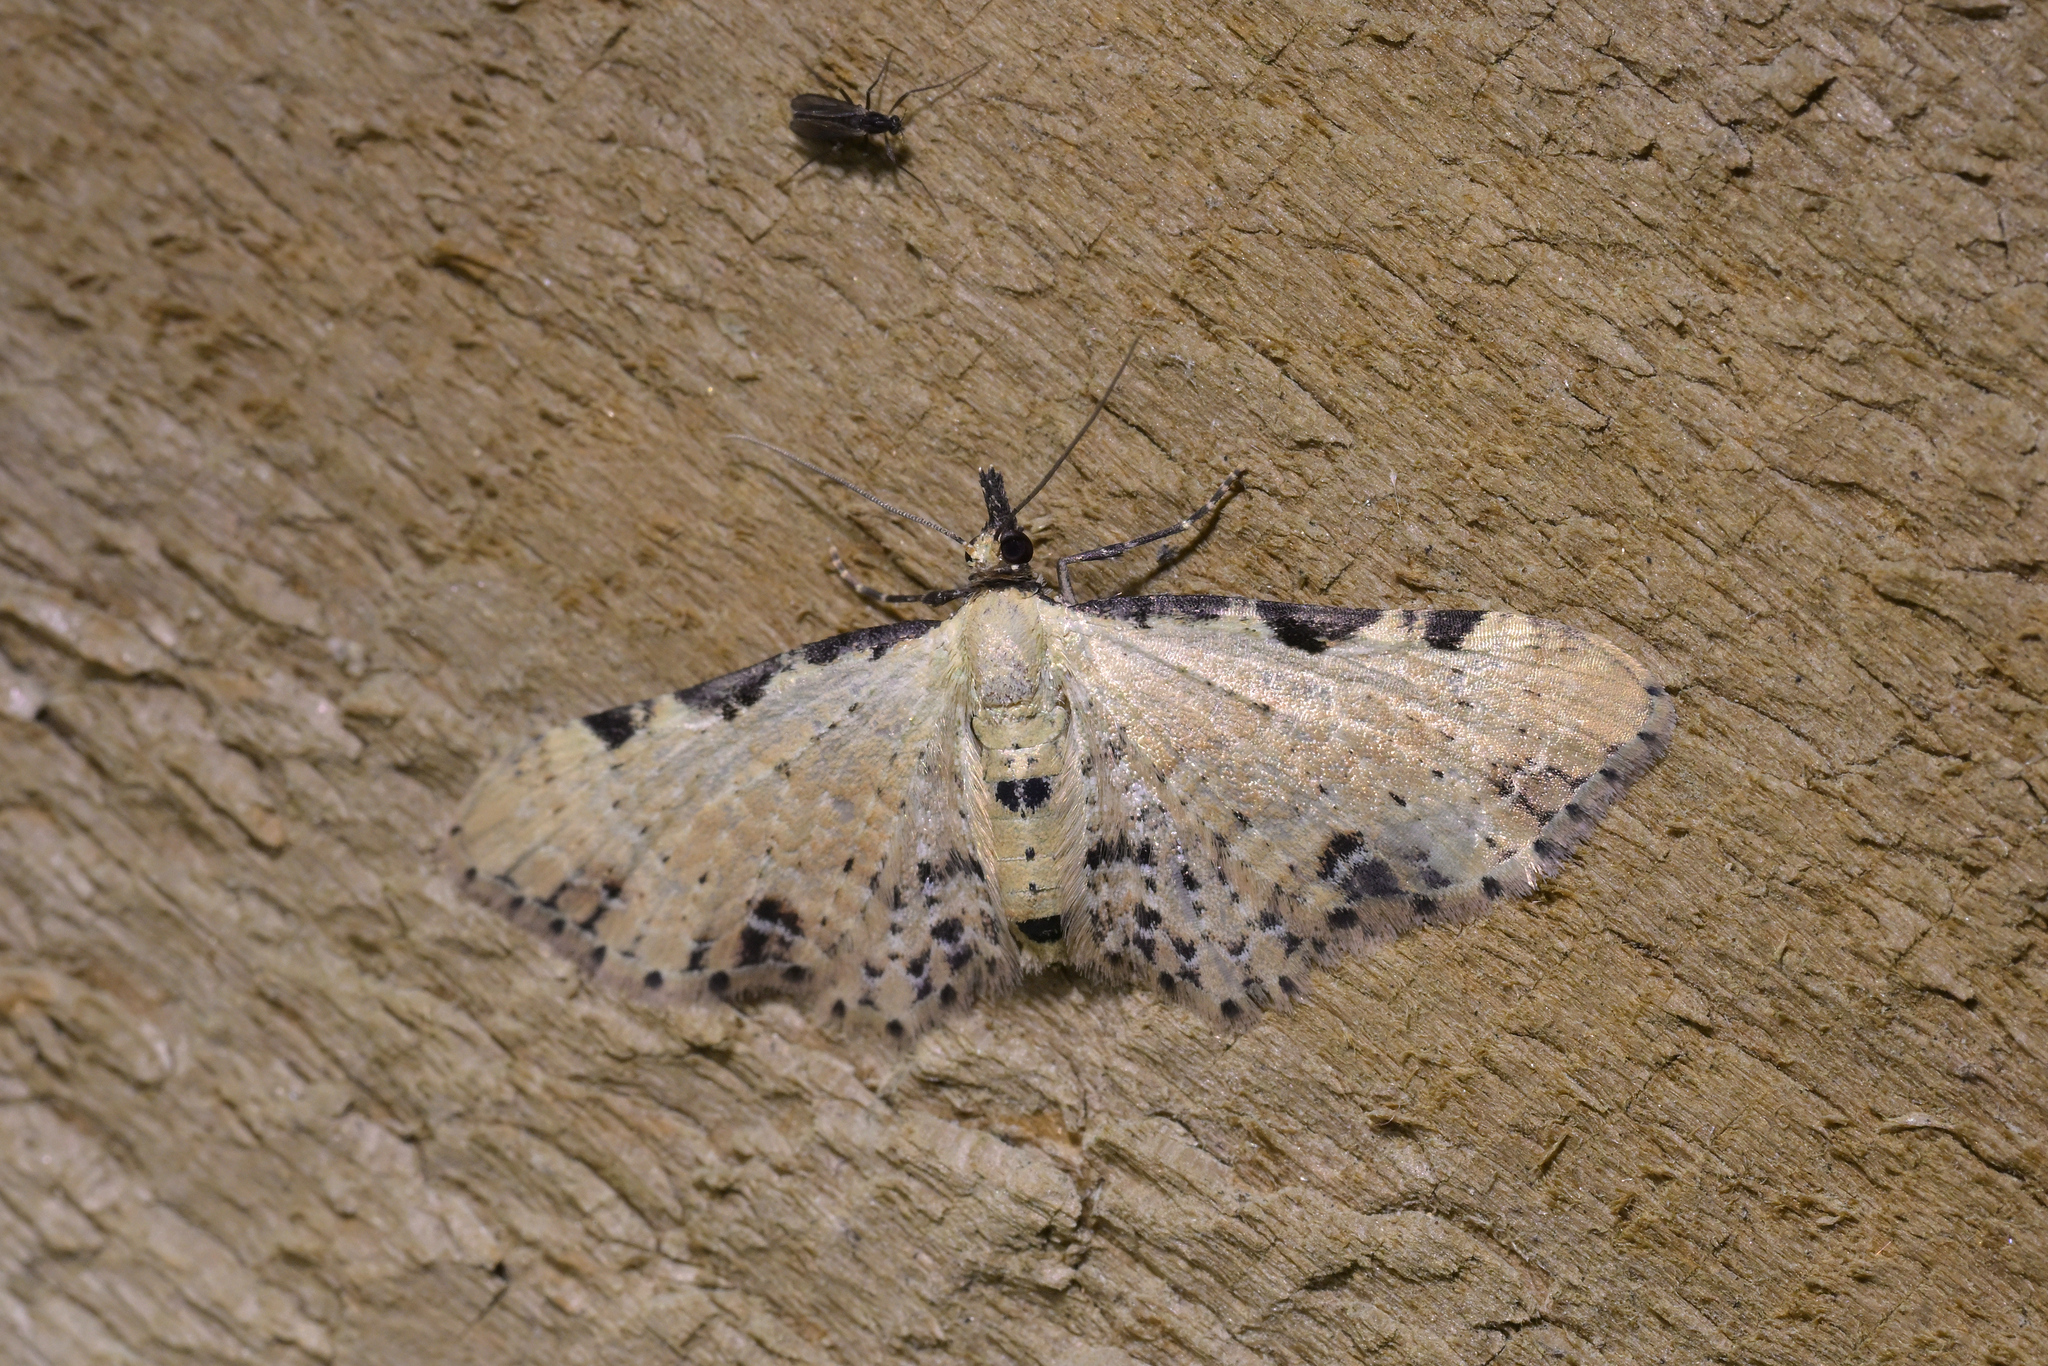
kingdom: Animalia
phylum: Arthropoda
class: Insecta
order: Lepidoptera
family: Geometridae
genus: Pasiphila
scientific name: Pasiphila fumipalpata
